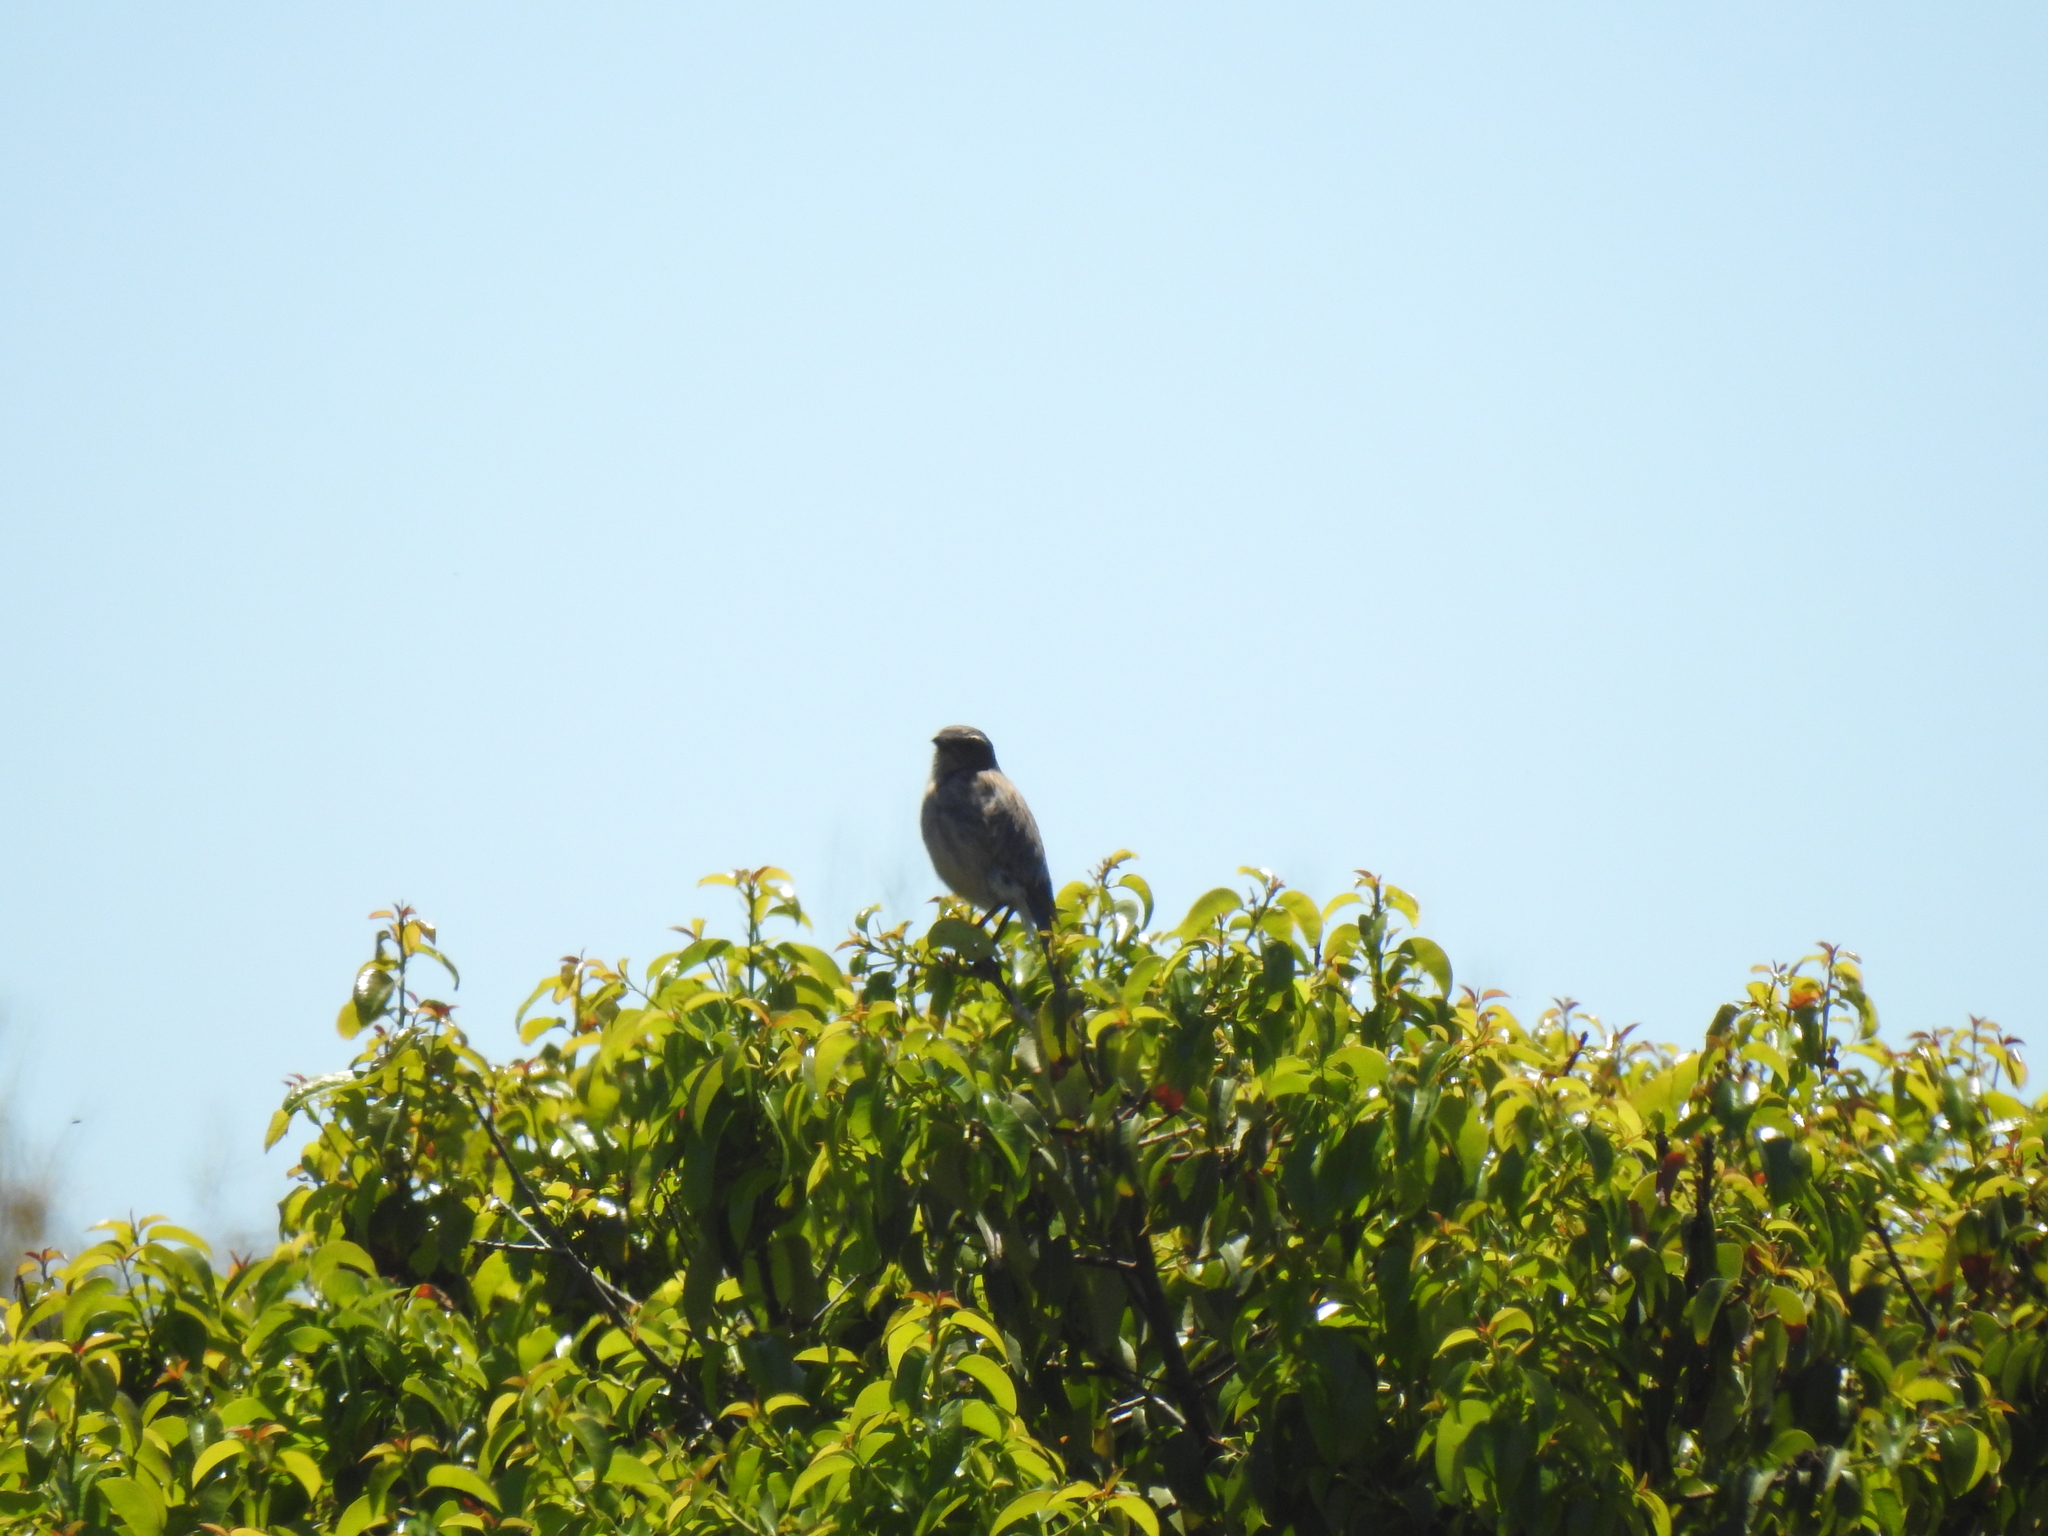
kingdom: Animalia
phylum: Chordata
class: Aves
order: Passeriformes
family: Corvidae
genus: Aphelocoma
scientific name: Aphelocoma californica
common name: California scrub-jay
